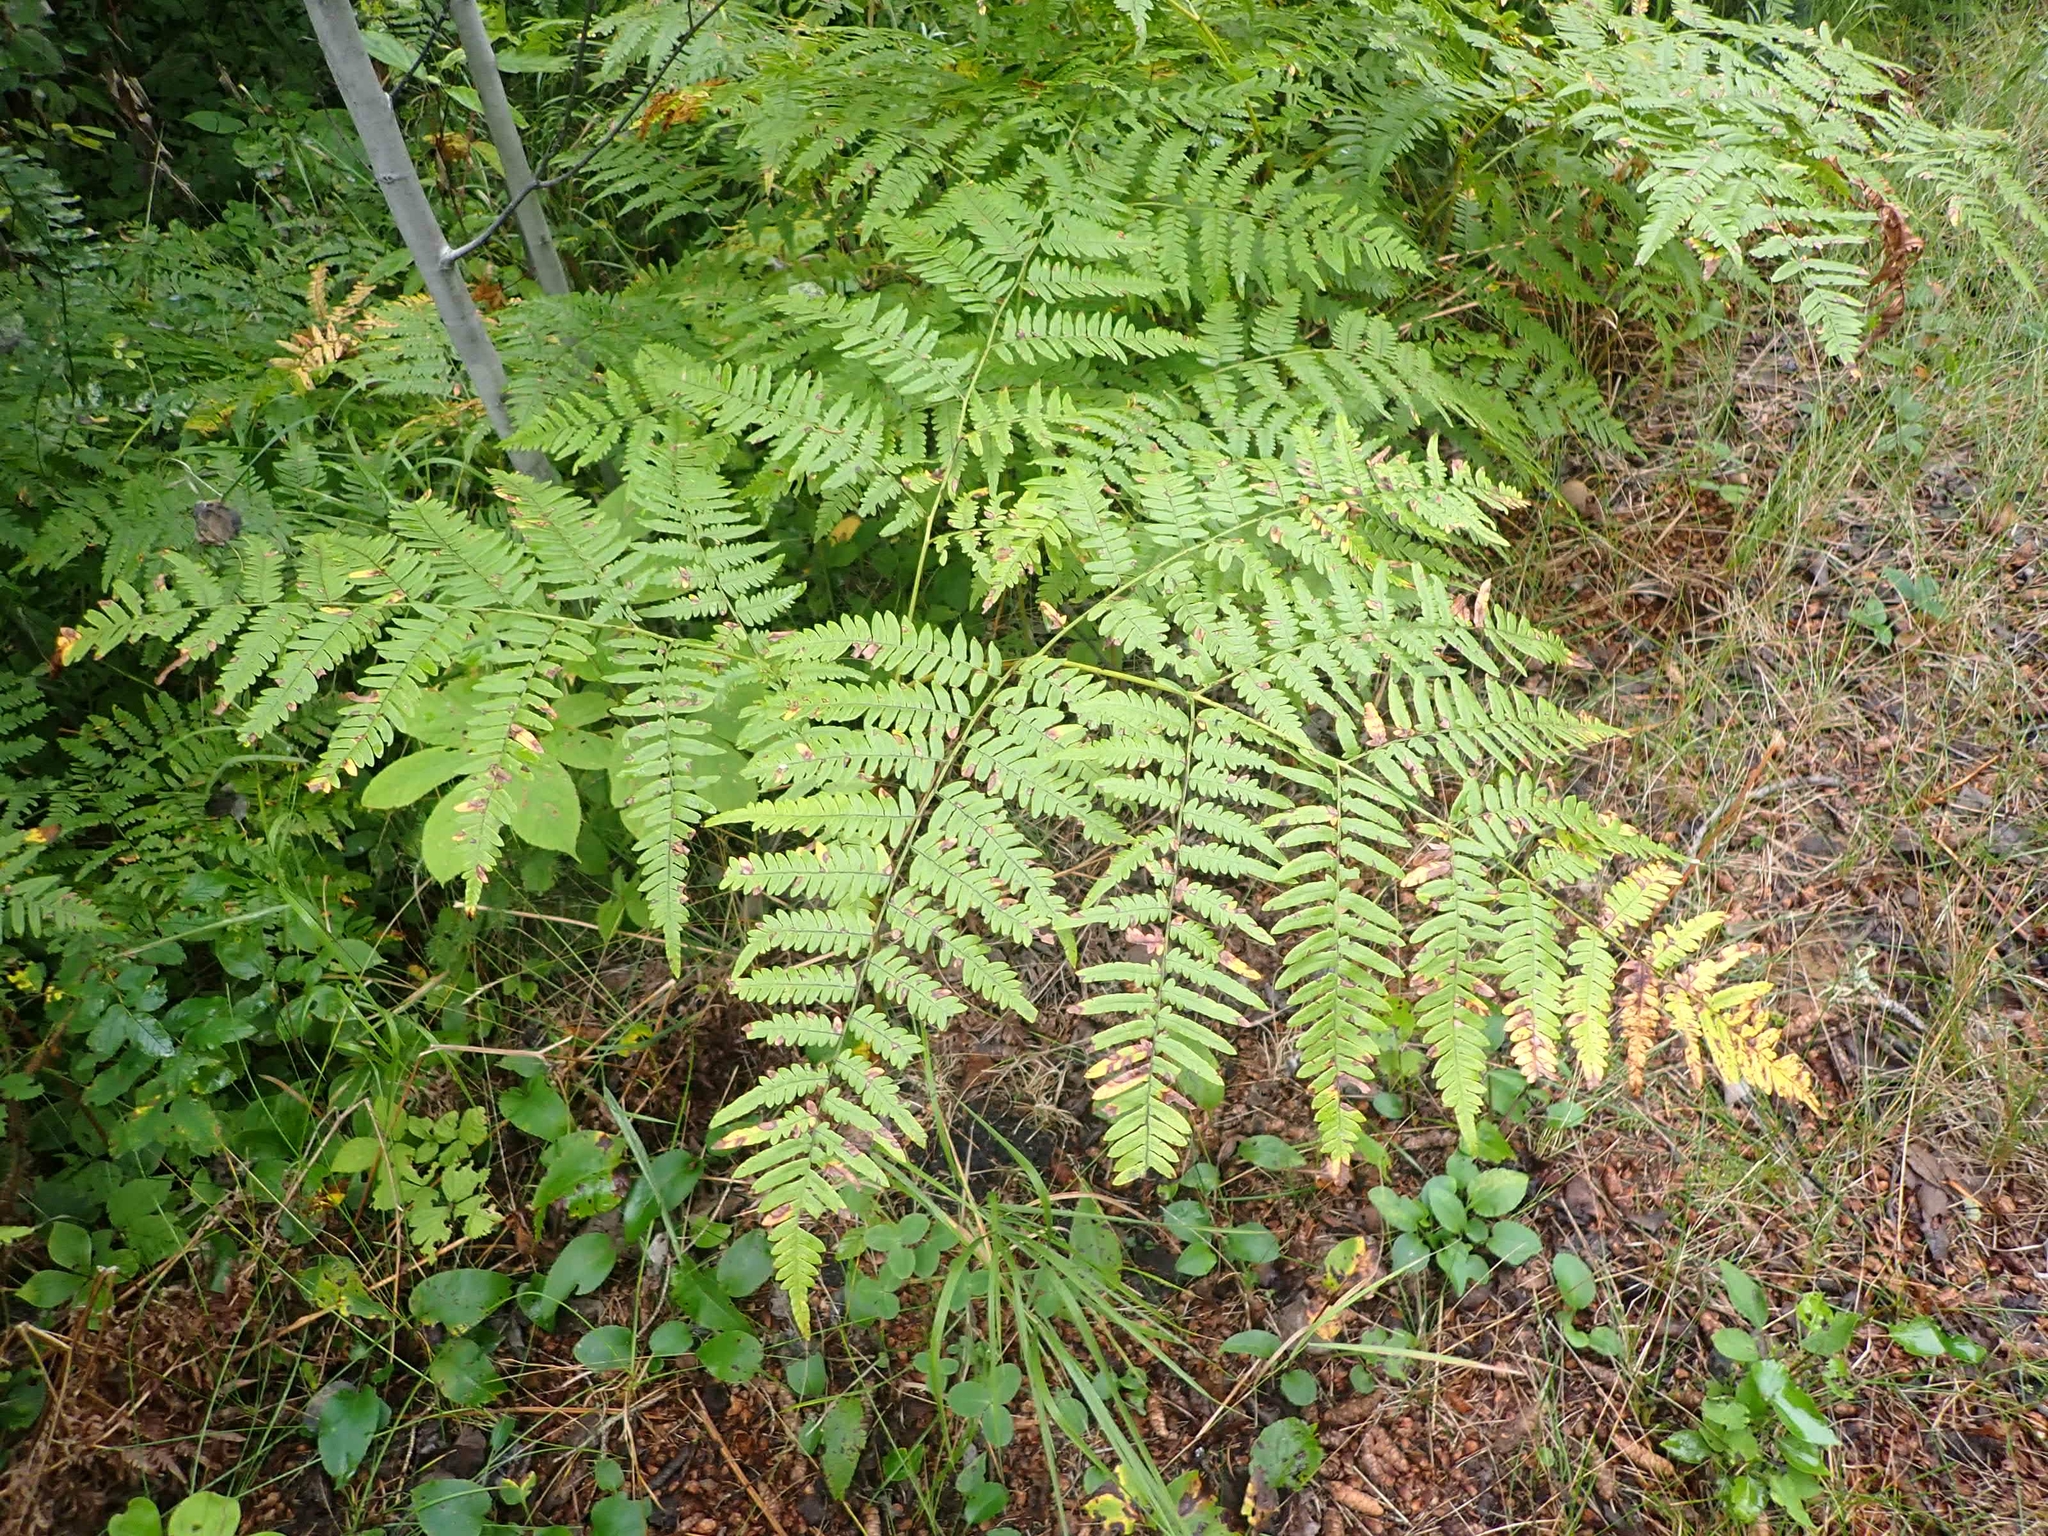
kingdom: Plantae
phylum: Tracheophyta
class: Polypodiopsida
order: Polypodiales
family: Dennstaedtiaceae
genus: Pteridium
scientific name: Pteridium aquilinum
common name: Bracken
